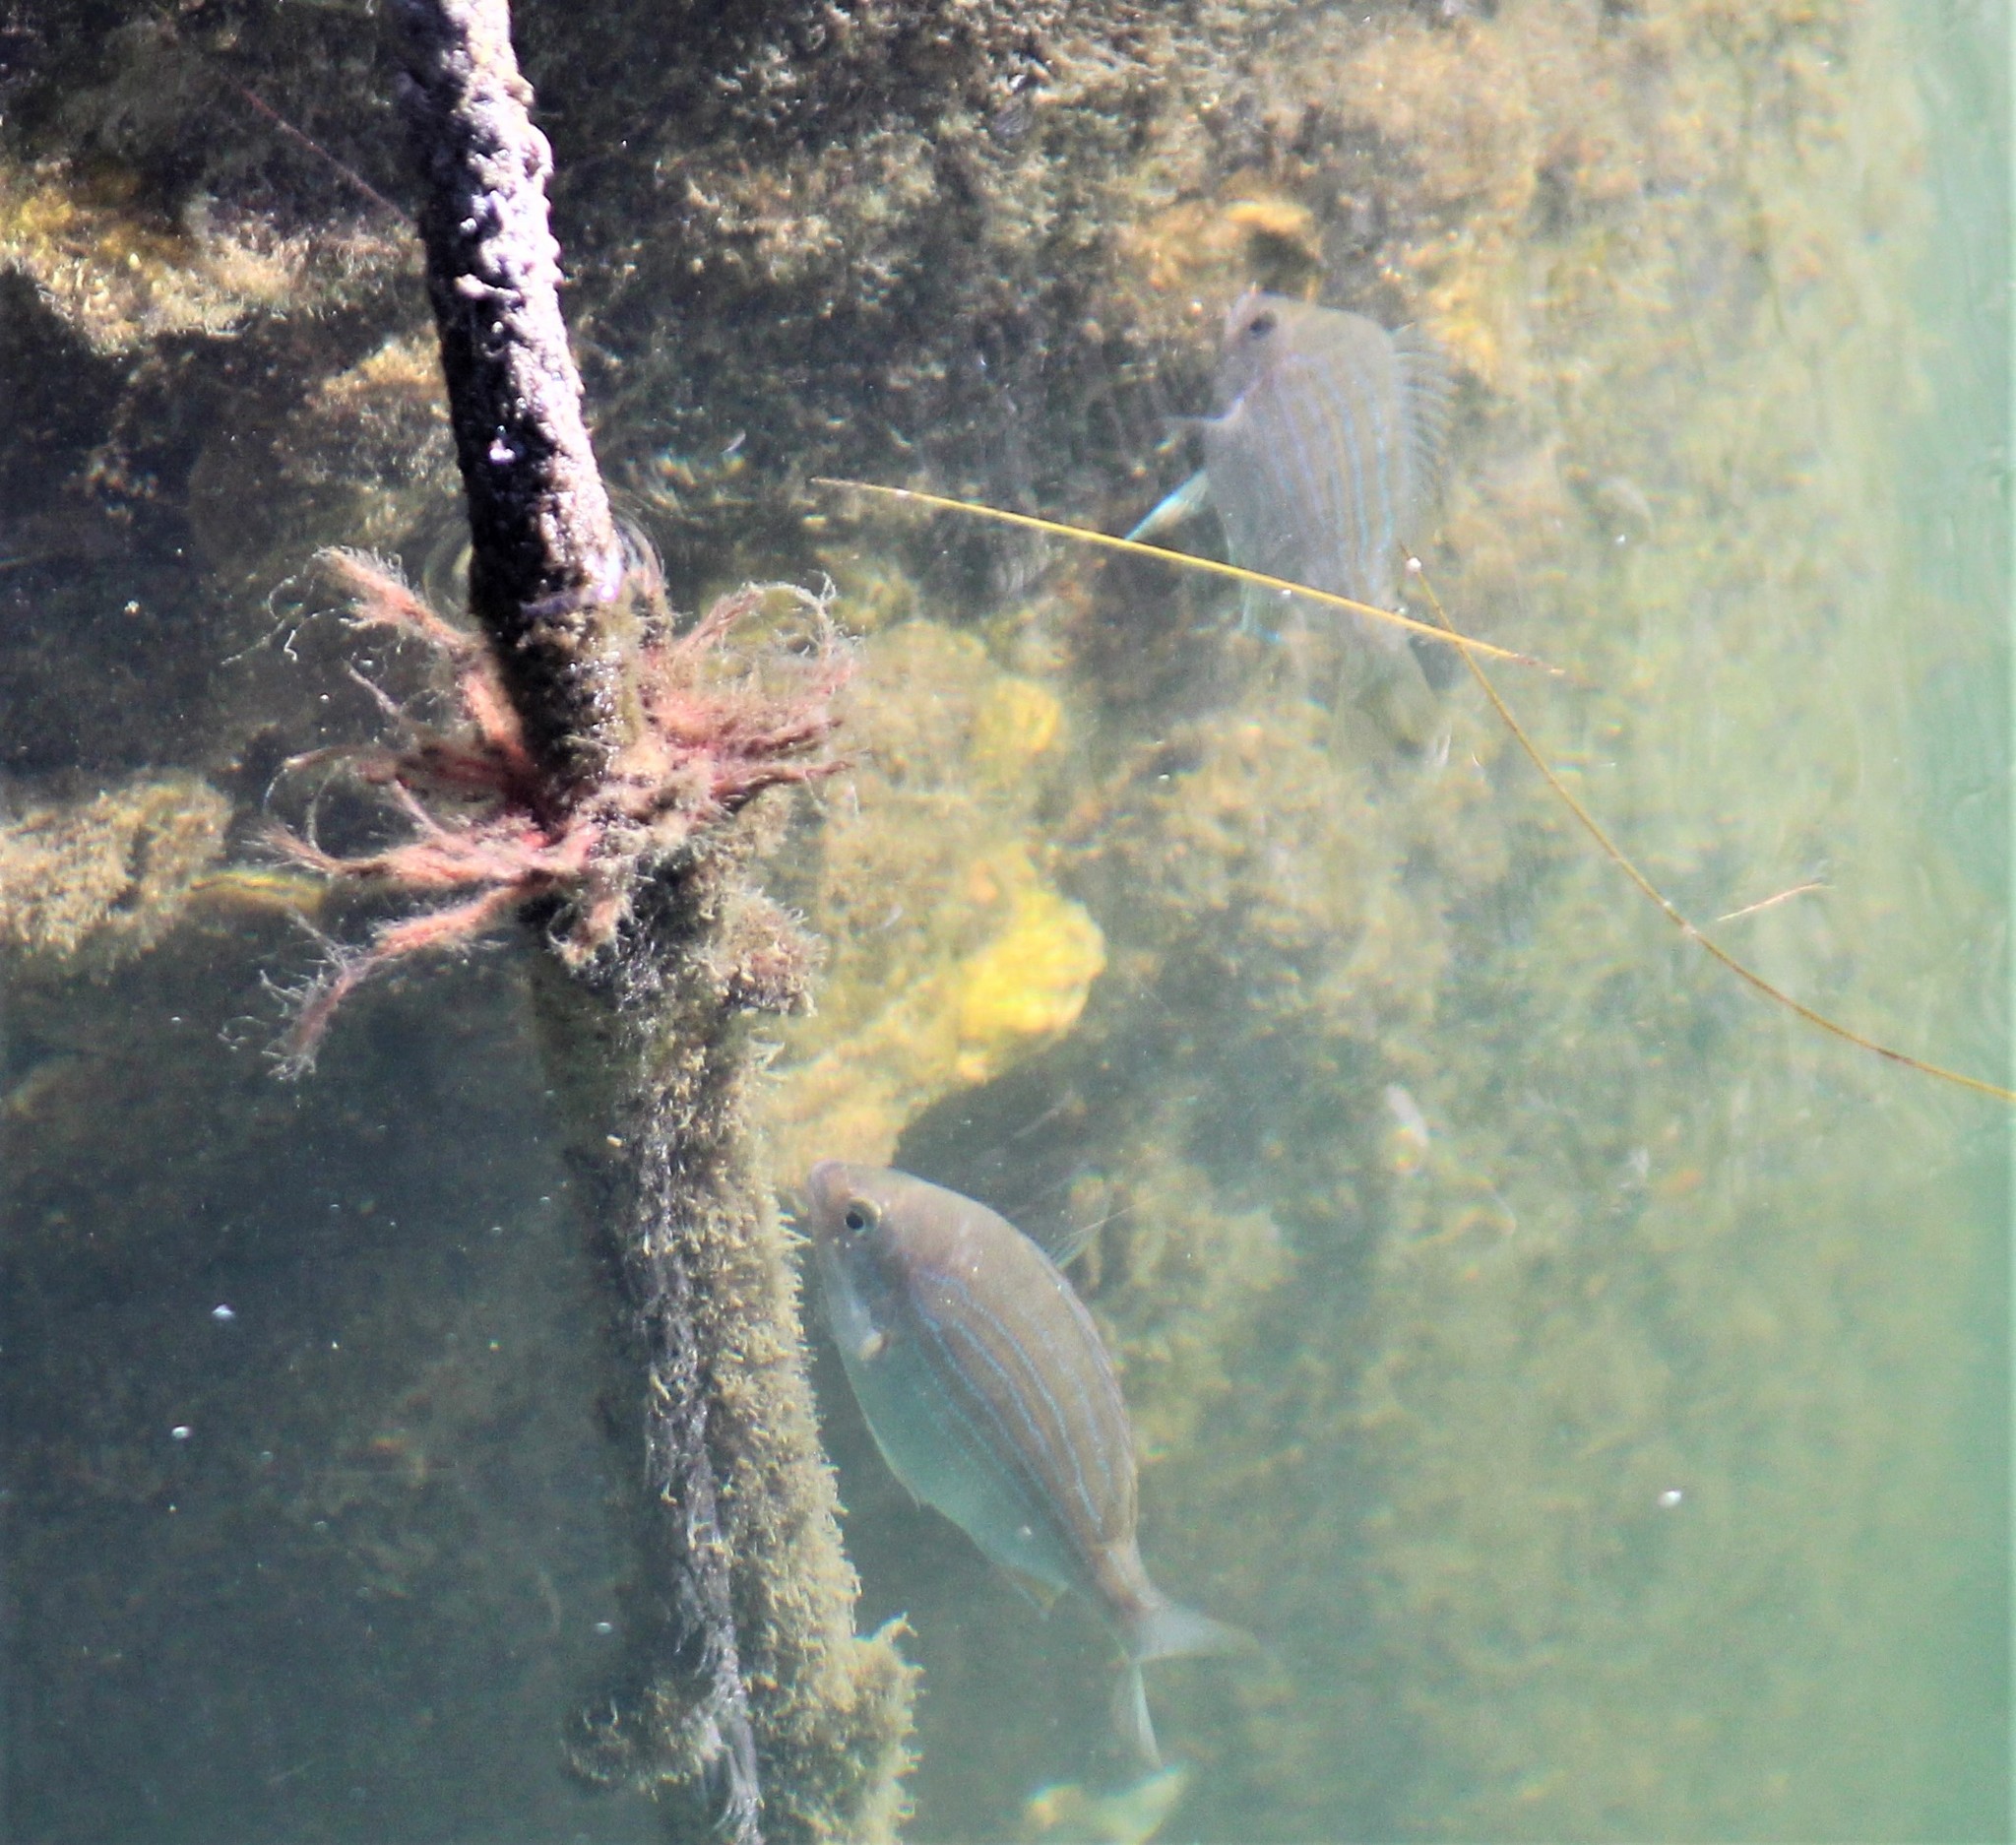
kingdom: Animalia
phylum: Chordata
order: Perciformes
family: Sparidae
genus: Lagodon
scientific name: Lagodon rhomboides
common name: Pinfish
